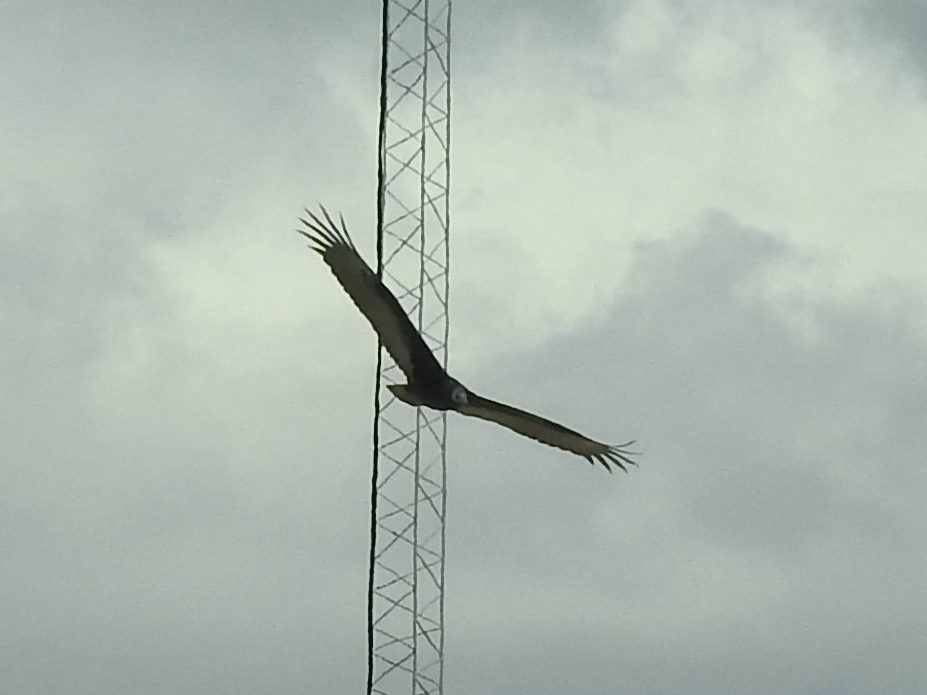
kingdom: Animalia
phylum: Chordata
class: Aves
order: Accipitriformes
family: Cathartidae
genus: Cathartes
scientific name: Cathartes aura
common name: Turkey vulture
